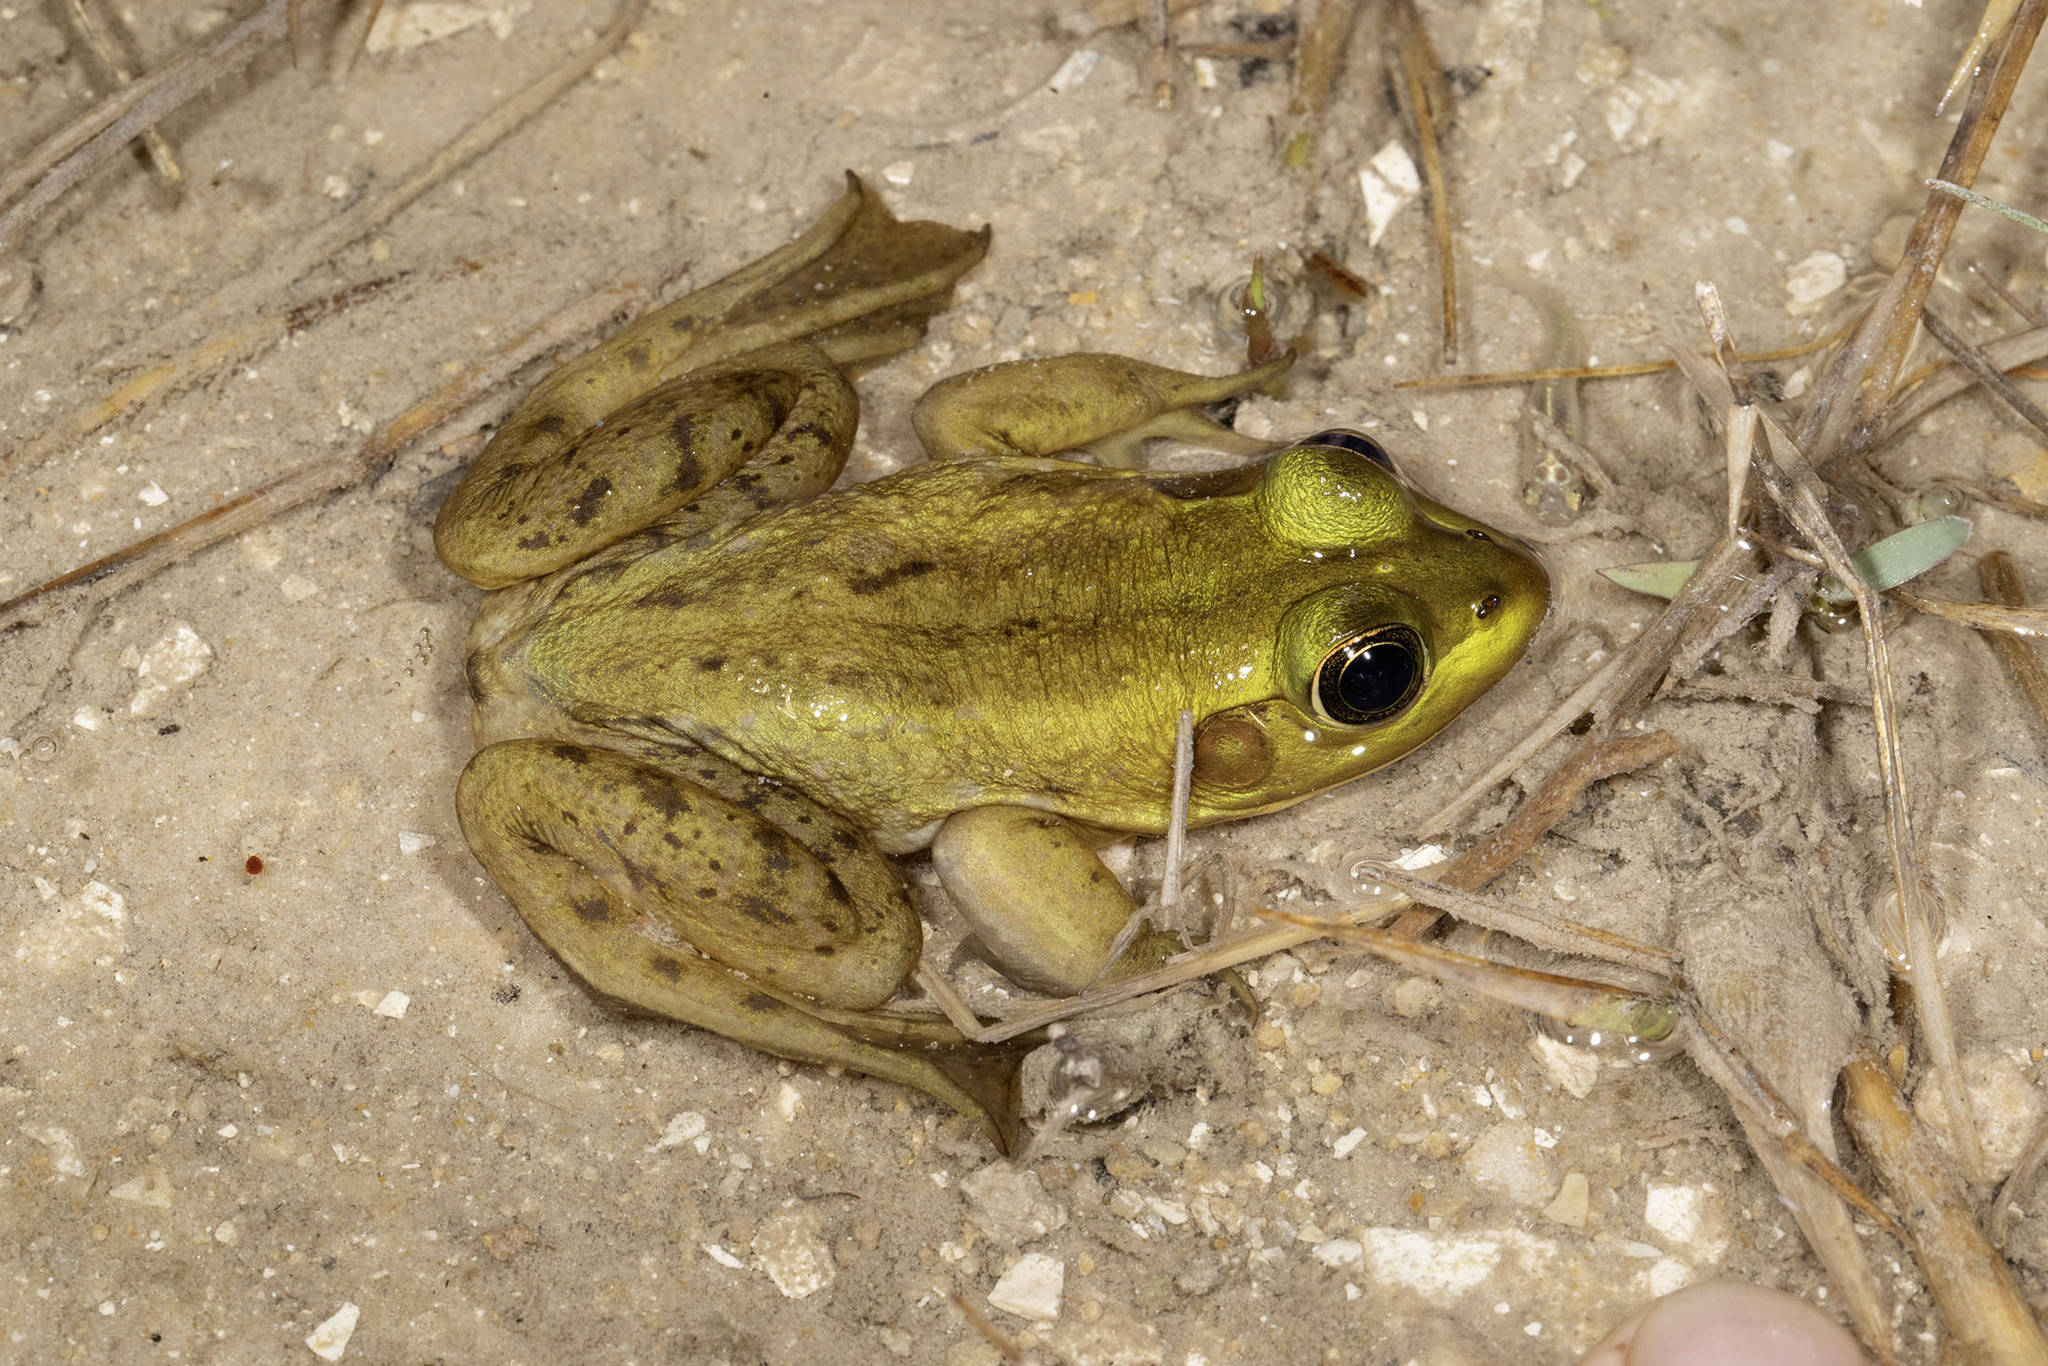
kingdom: Animalia
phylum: Chordata
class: Amphibia
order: Anura
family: Ranidae
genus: Lithobates
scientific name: Lithobates grylio
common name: Pig frog
